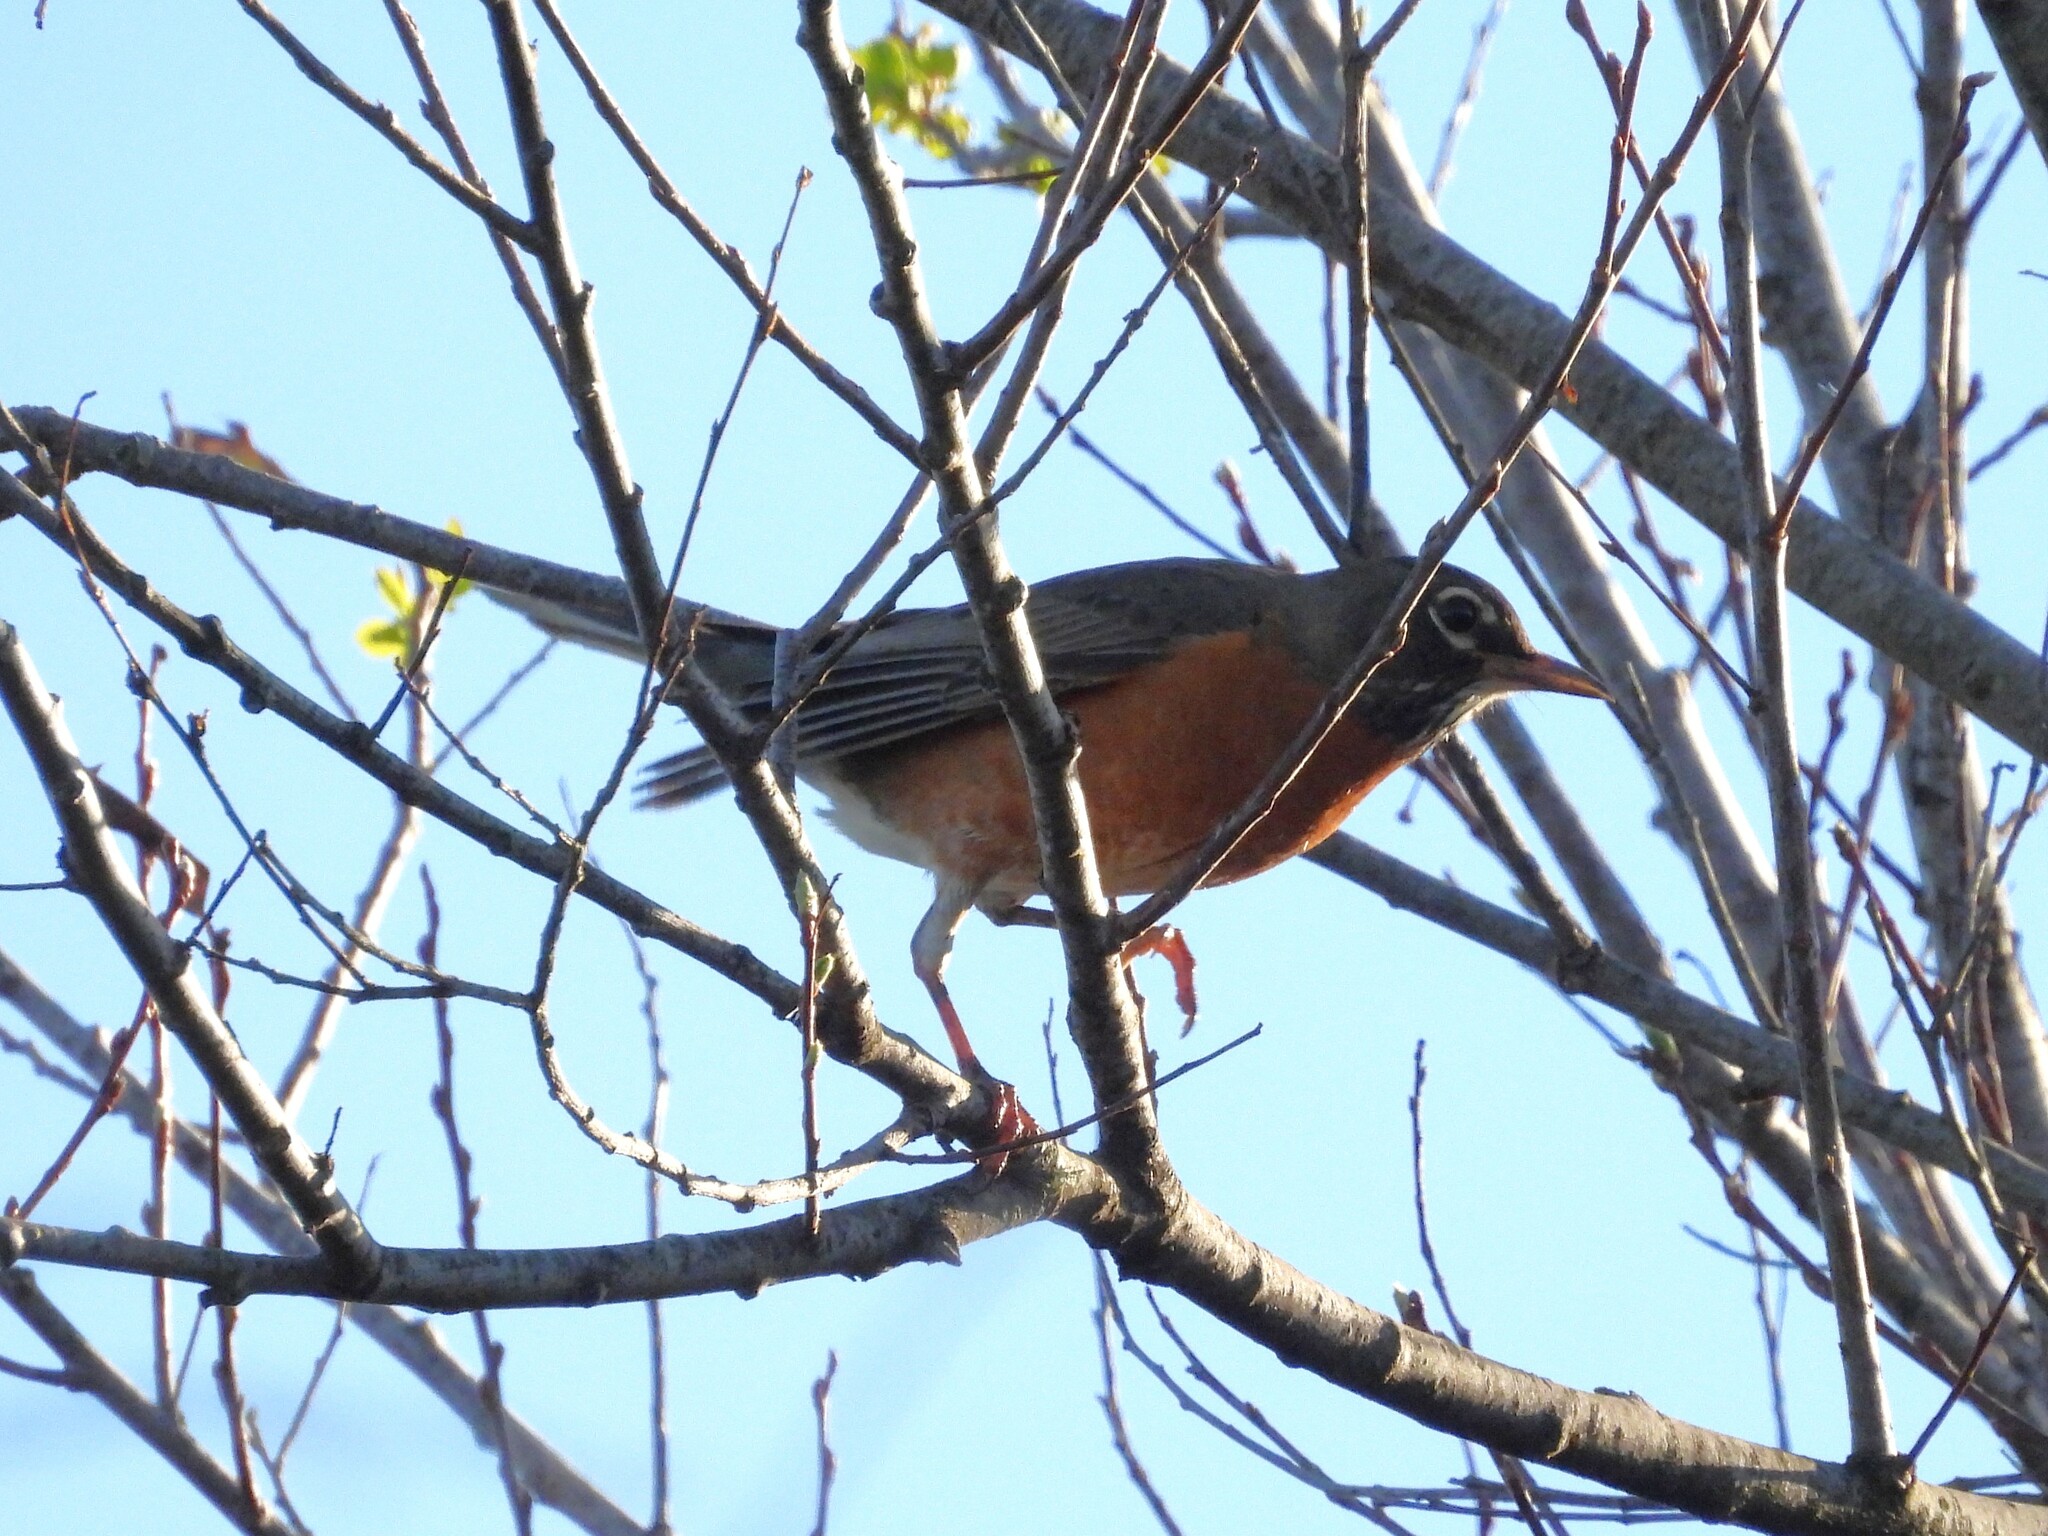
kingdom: Animalia
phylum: Chordata
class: Aves
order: Passeriformes
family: Turdidae
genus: Turdus
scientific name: Turdus migratorius
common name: American robin
